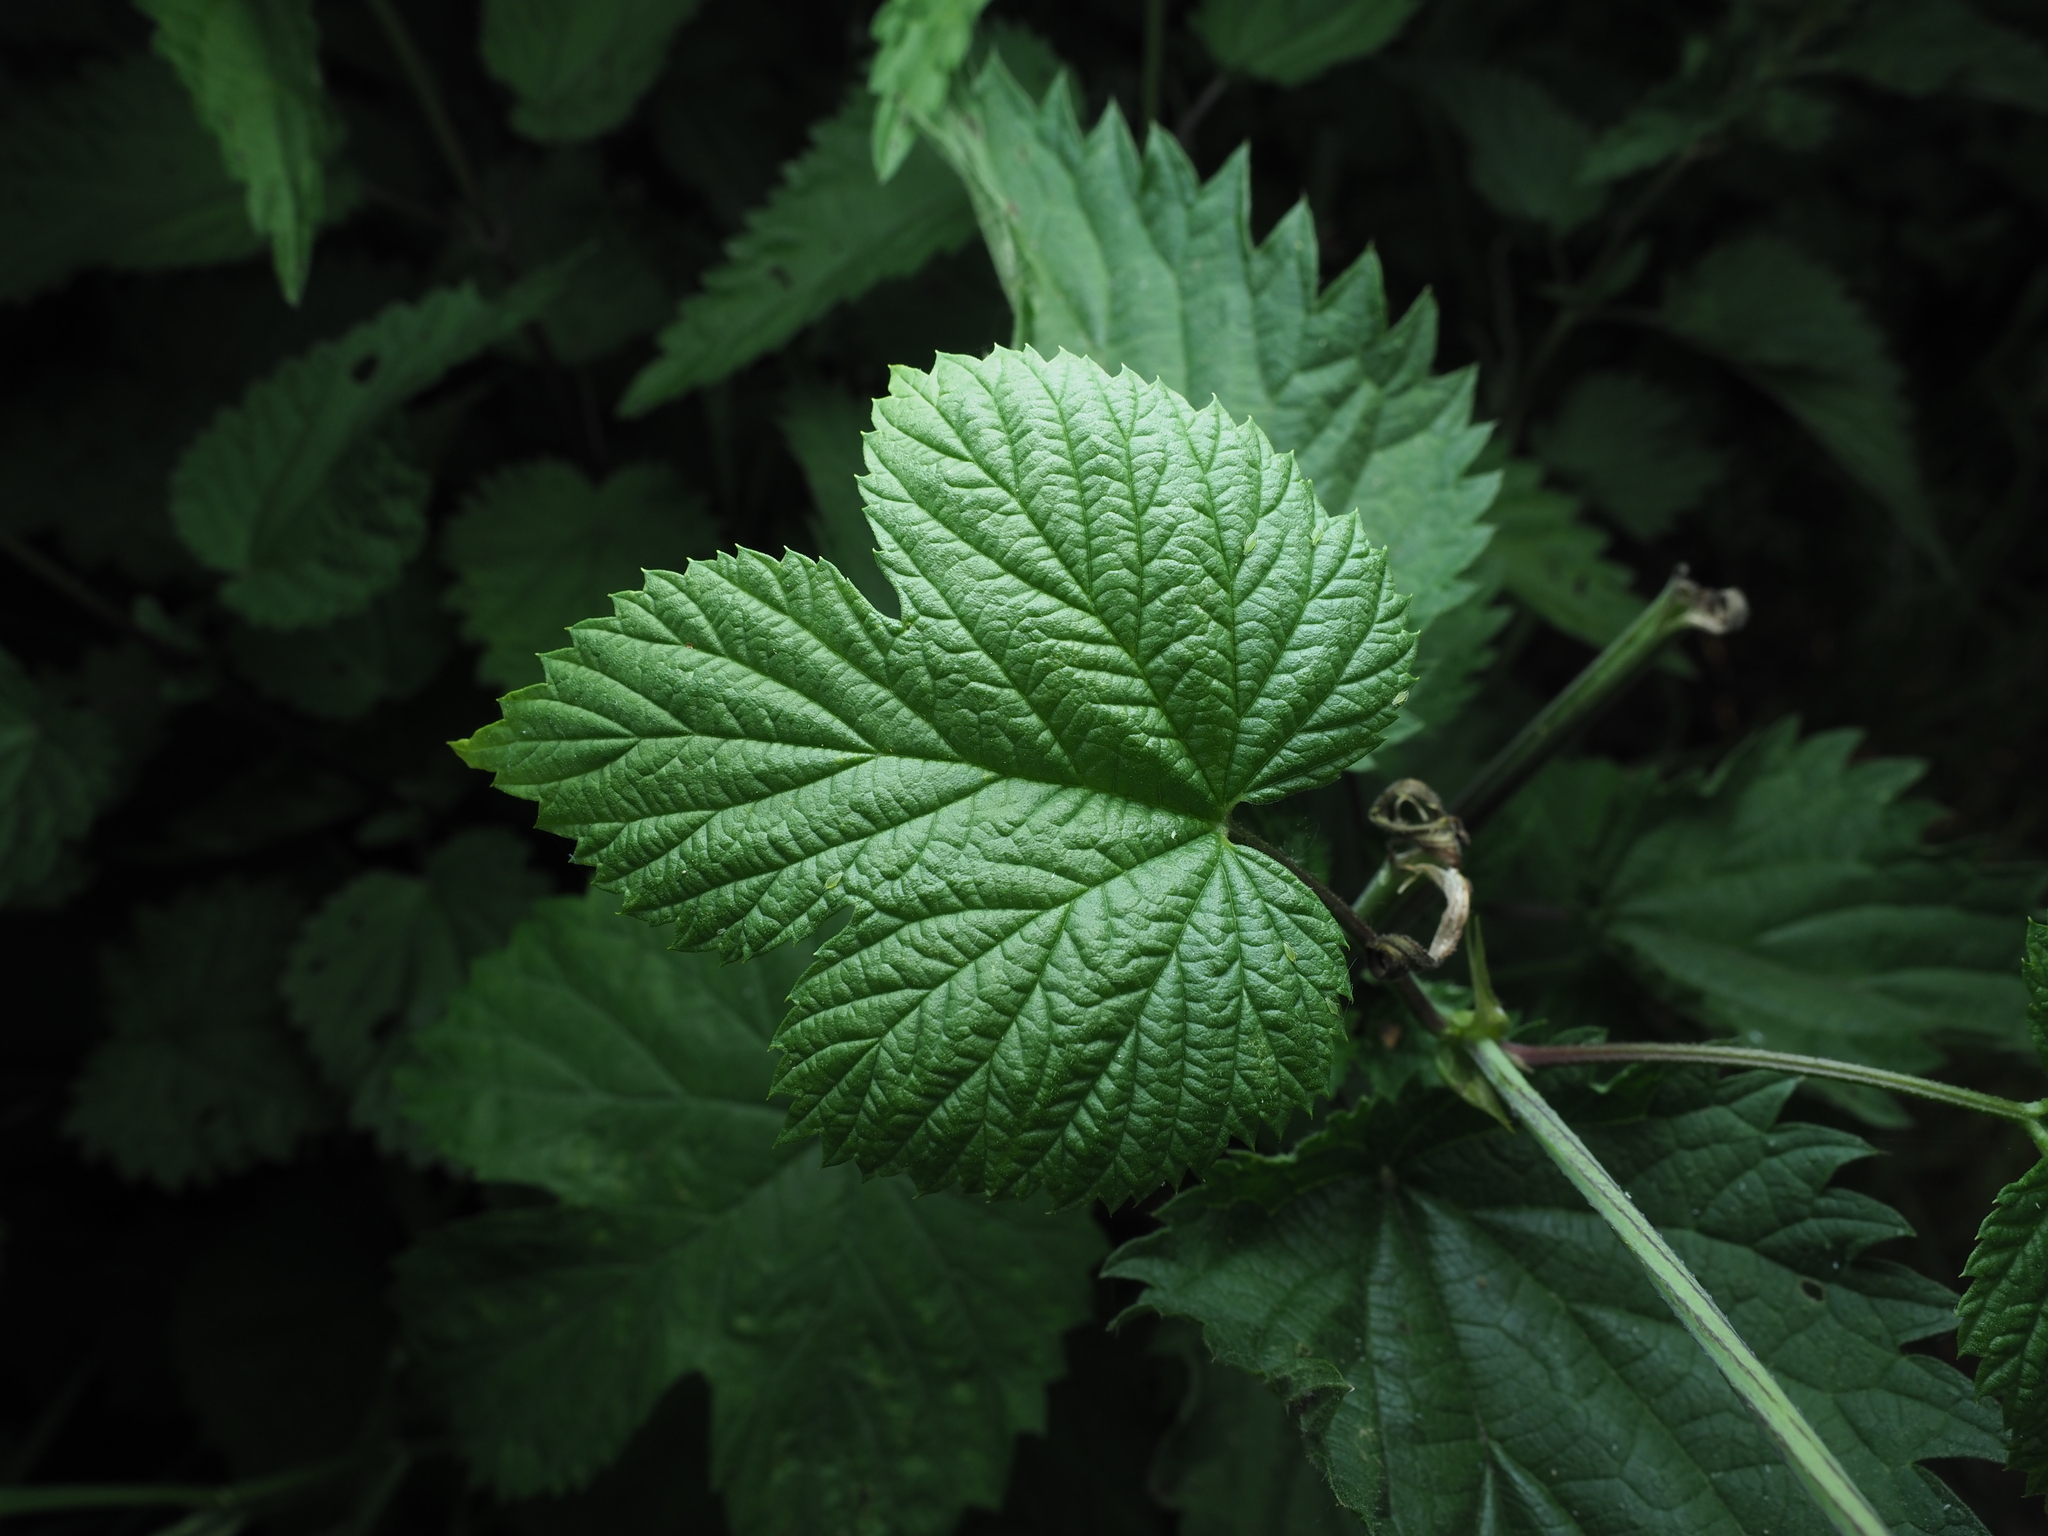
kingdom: Plantae
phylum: Tracheophyta
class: Magnoliopsida
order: Rosales
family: Cannabaceae
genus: Humulus
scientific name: Humulus lupulus
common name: Hop
